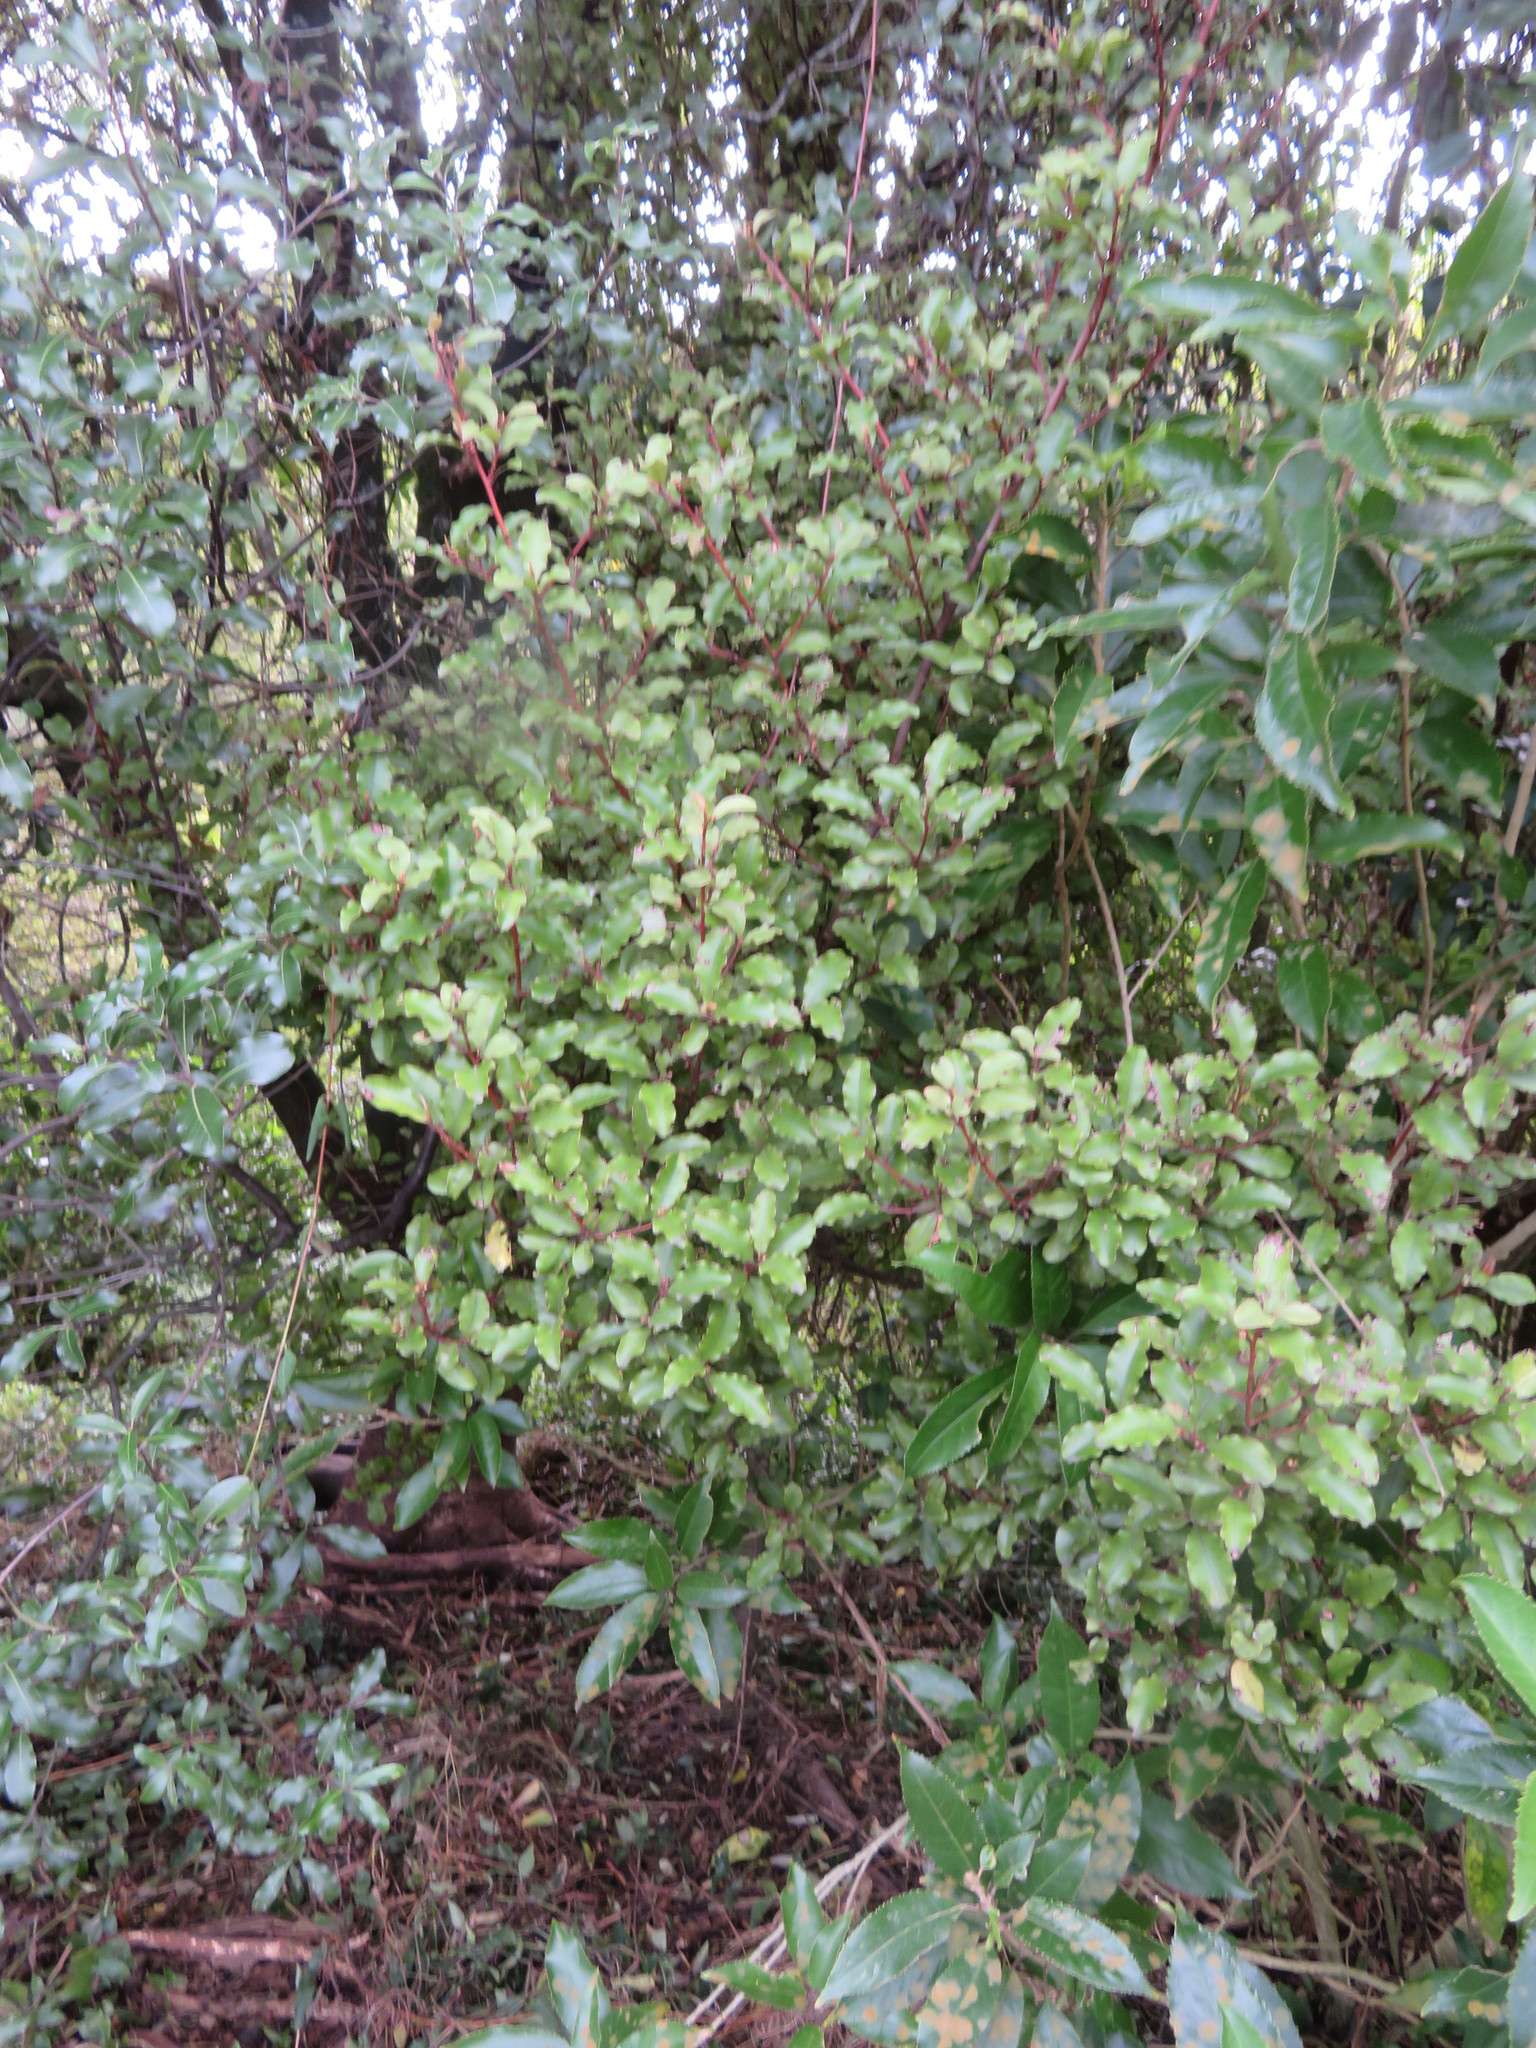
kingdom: Plantae
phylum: Tracheophyta
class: Magnoliopsida
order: Ericales
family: Primulaceae
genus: Myrsine
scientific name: Myrsine australis
